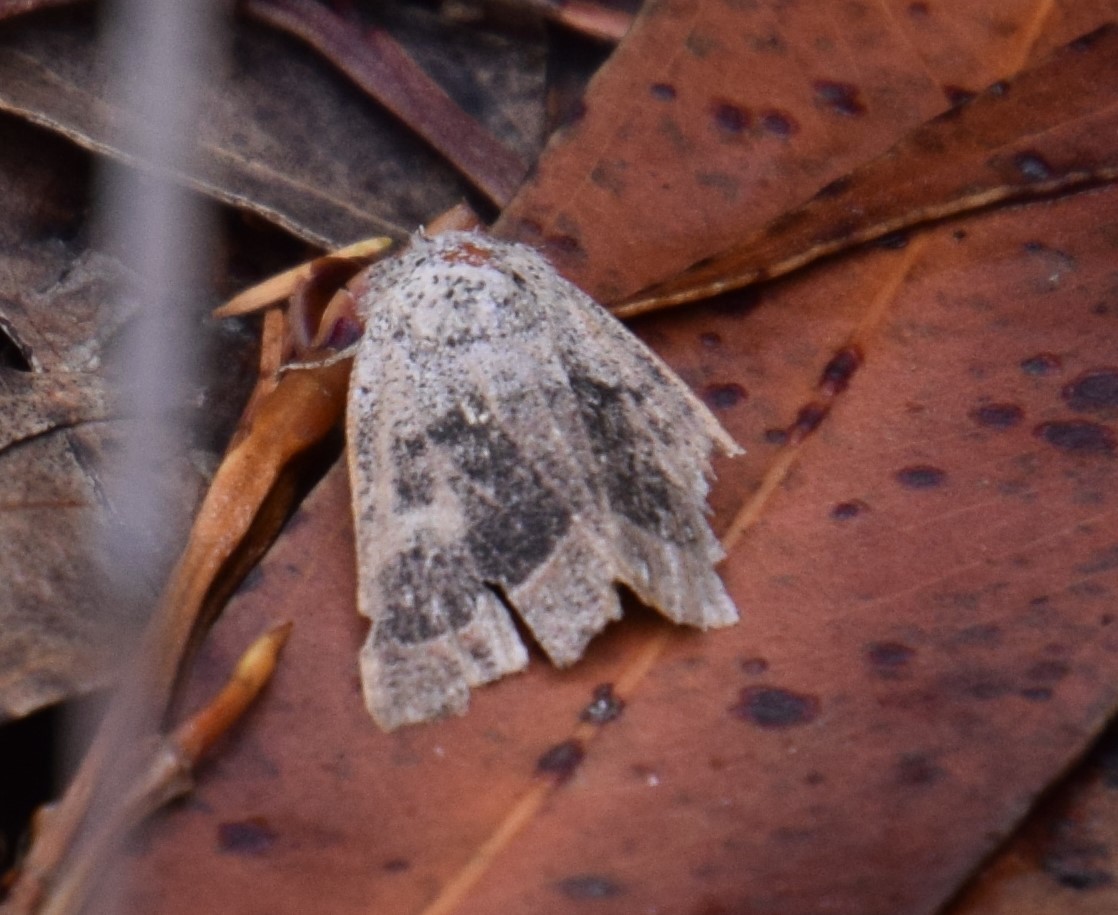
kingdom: Animalia
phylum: Arthropoda
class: Insecta
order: Lepidoptera
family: Erebidae
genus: Pantydia
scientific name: Pantydia diemeni
